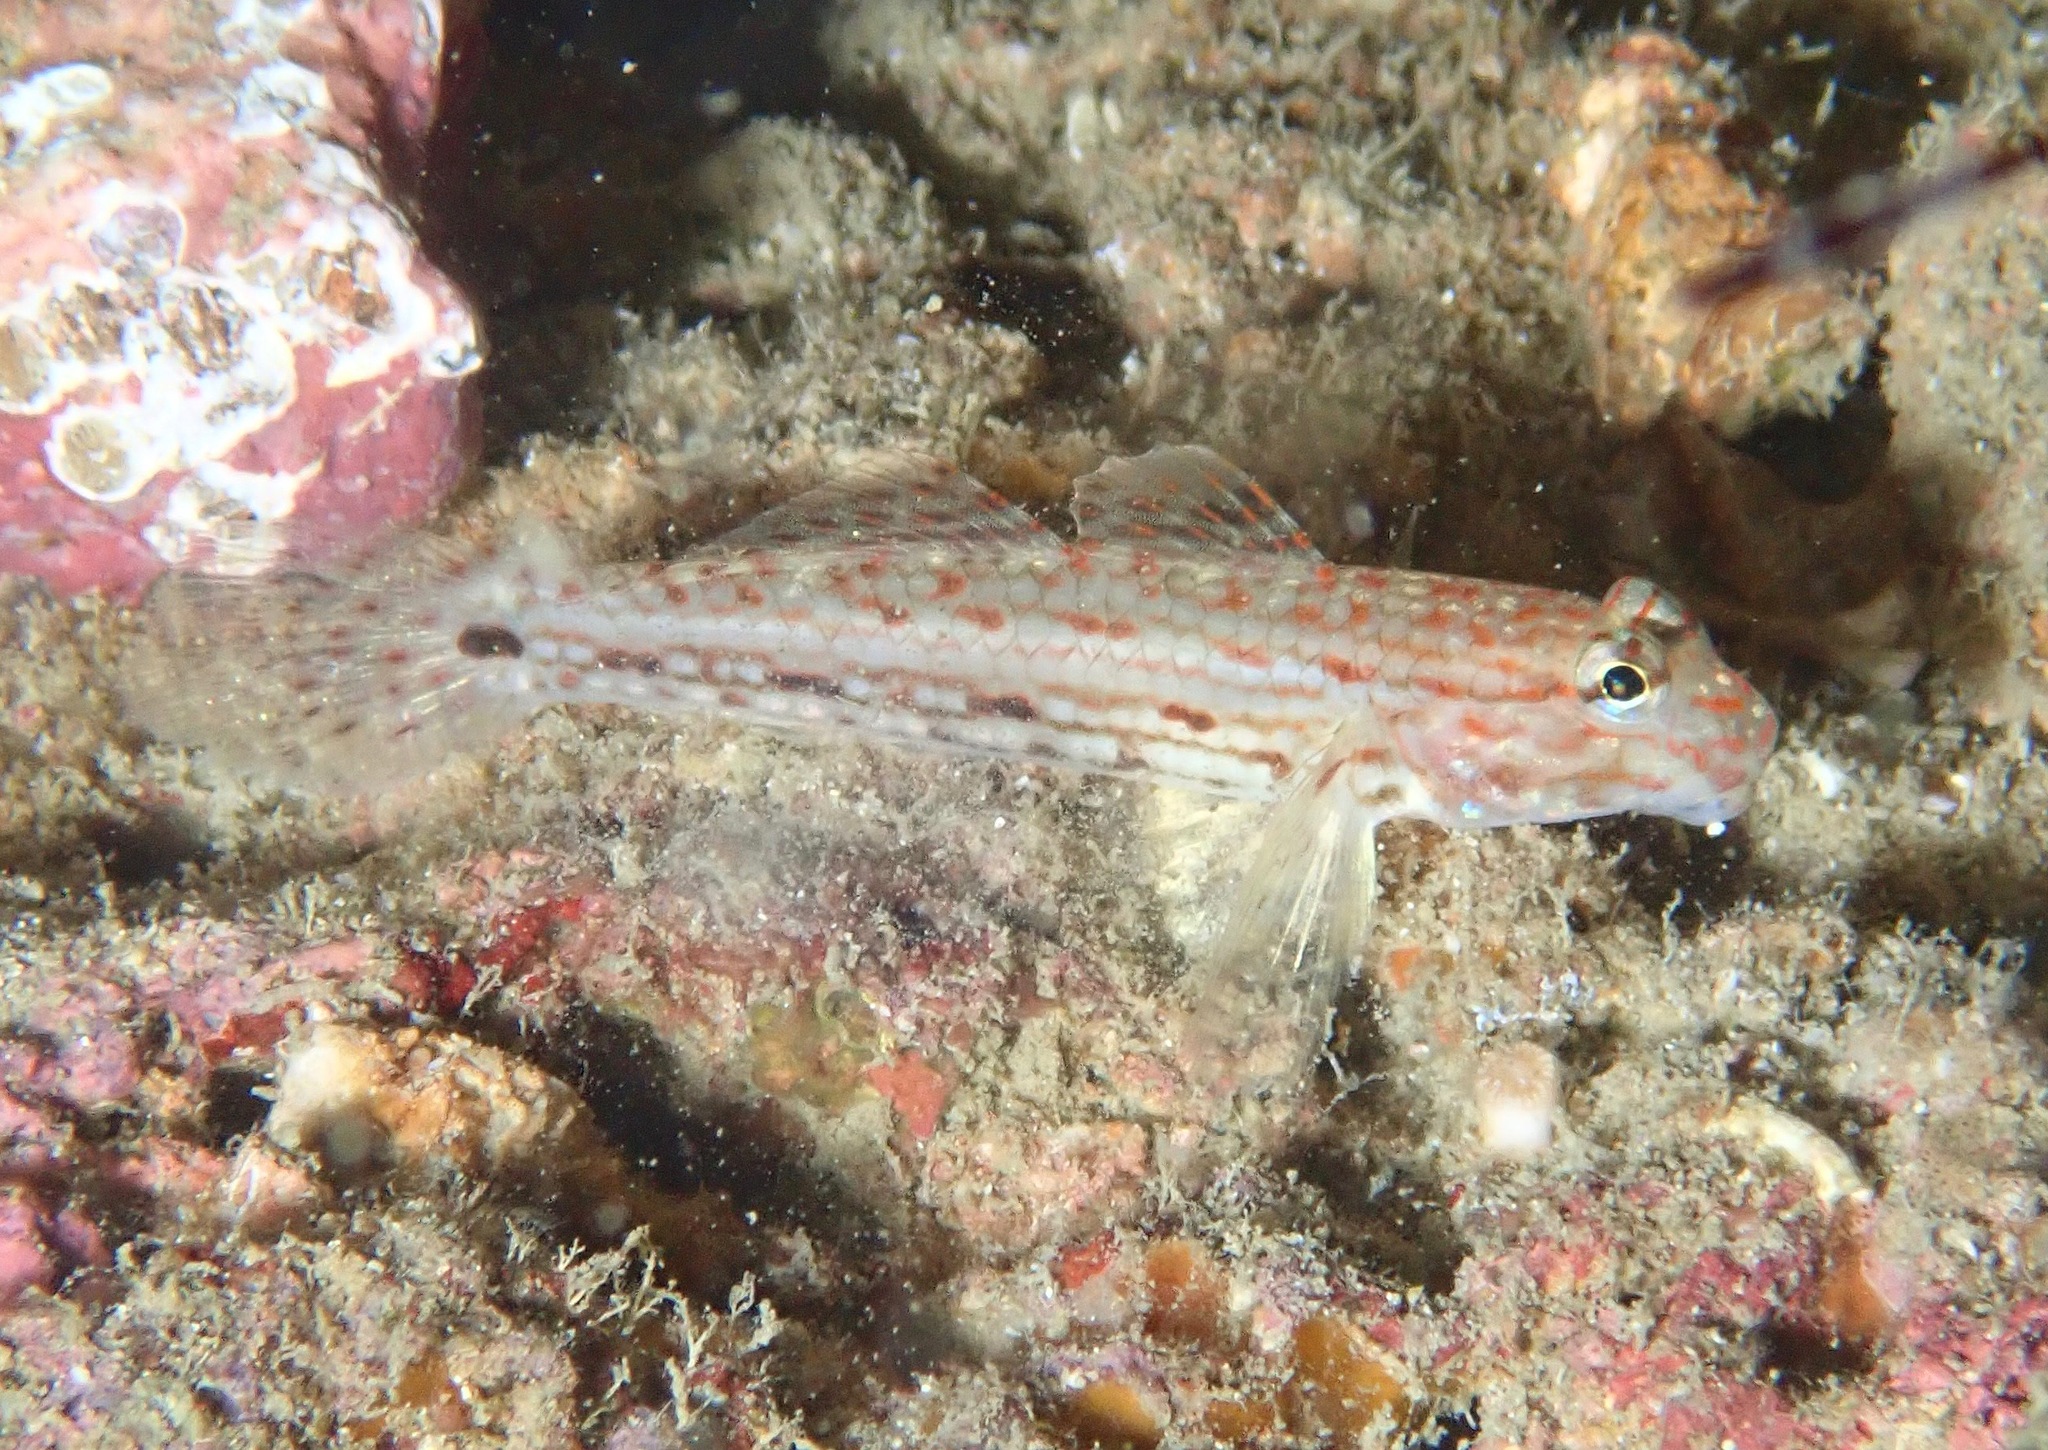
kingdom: Animalia
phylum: Chordata
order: Perciformes
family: Gobiidae
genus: Istigobius
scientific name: Istigobius decoratus
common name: Decorated goby
